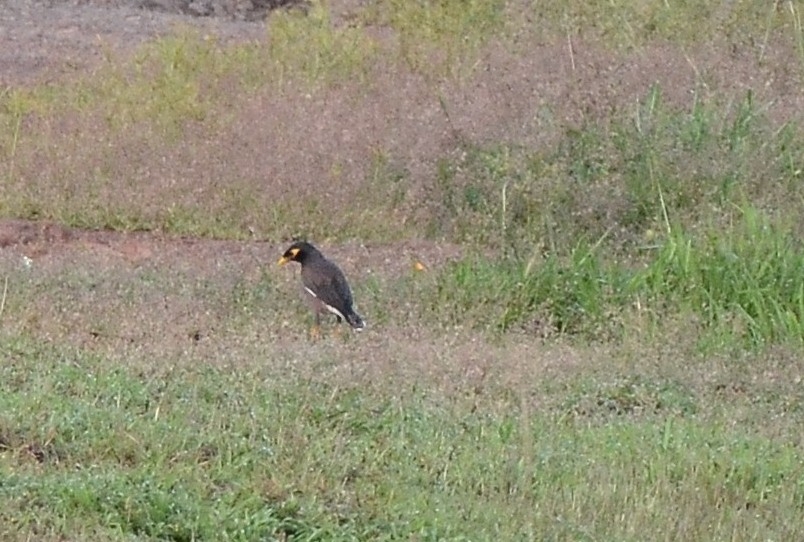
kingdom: Animalia
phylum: Chordata
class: Aves
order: Passeriformes
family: Sturnidae
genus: Acridotheres
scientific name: Acridotheres tristis
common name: Common myna
